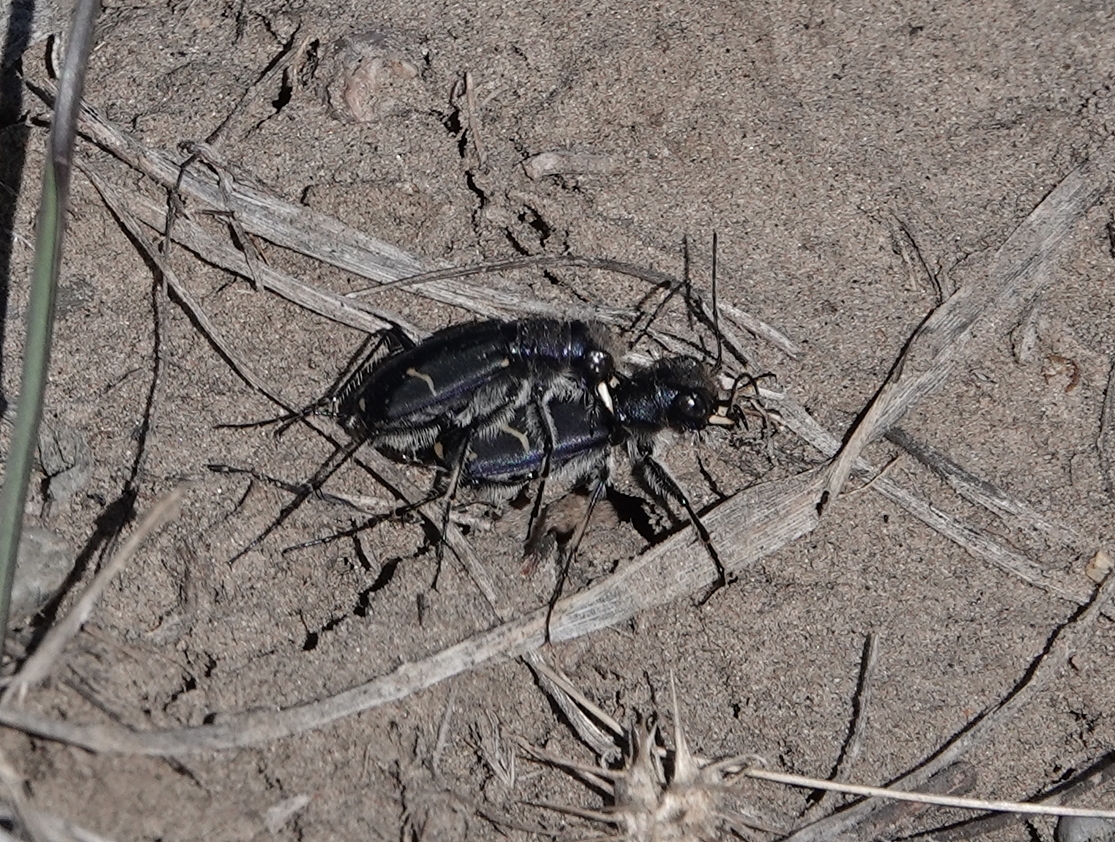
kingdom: Animalia
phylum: Arthropoda
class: Insecta
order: Coleoptera
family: Carabidae
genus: Cicindela
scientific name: Cicindela purpurea
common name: Cow path tiger beetle
